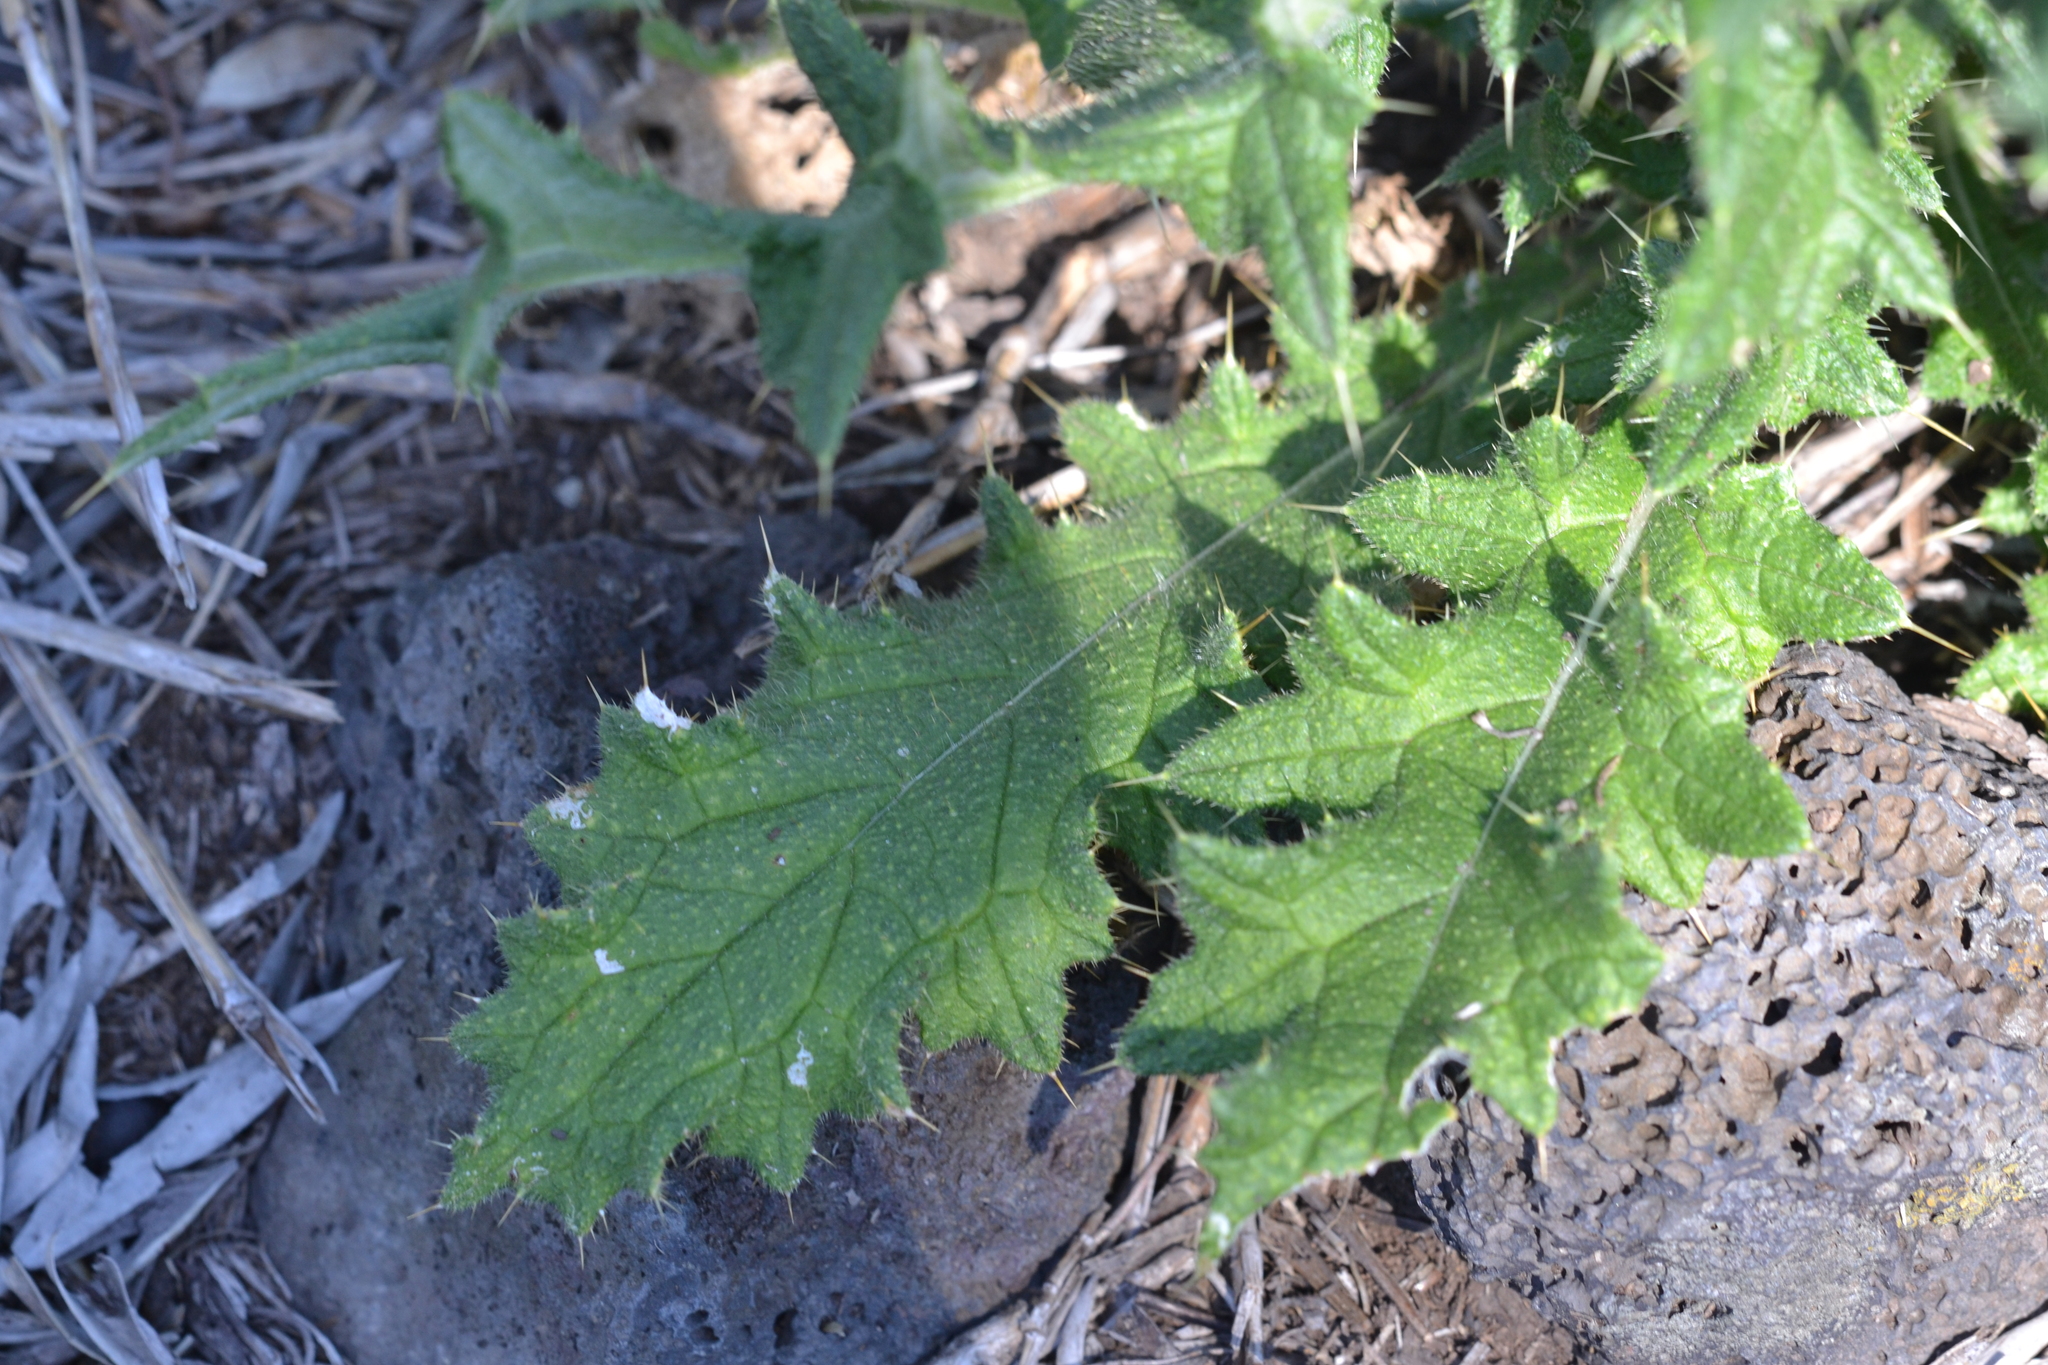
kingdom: Plantae
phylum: Tracheophyta
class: Magnoliopsida
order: Asterales
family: Asteraceae
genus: Cirsium
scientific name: Cirsium vulgare
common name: Bull thistle
